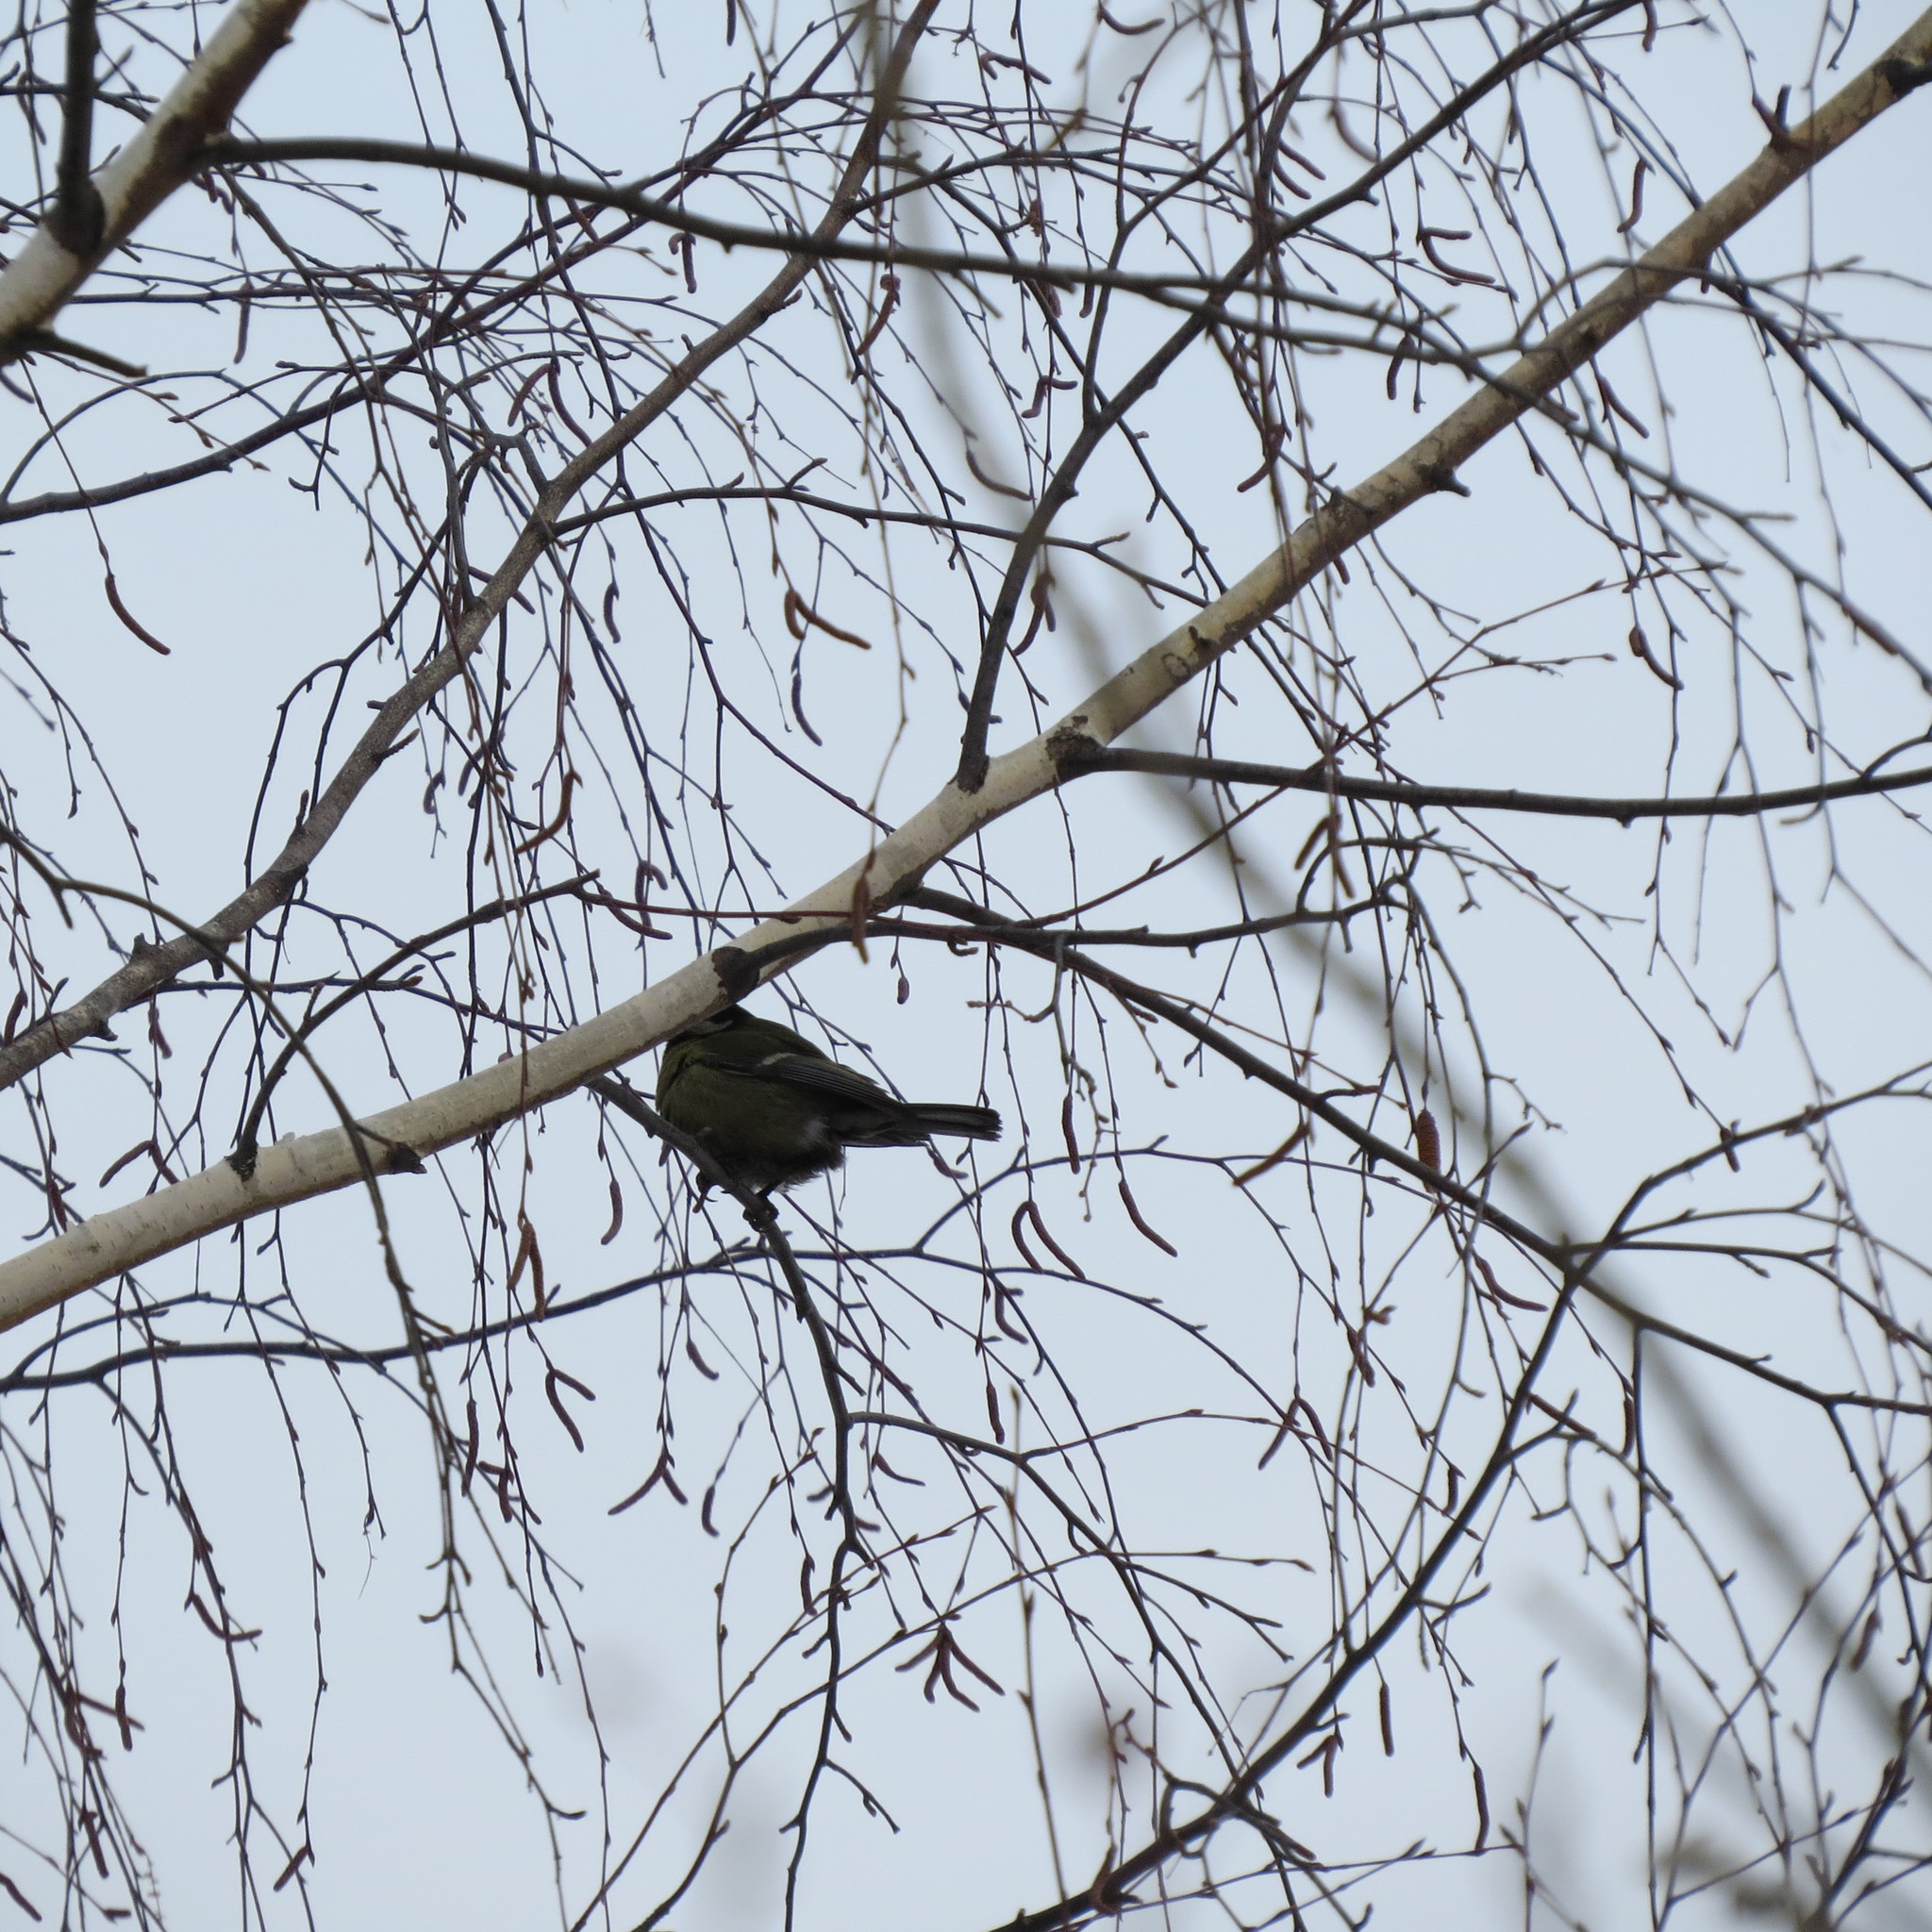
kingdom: Animalia
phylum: Chordata
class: Aves
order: Passeriformes
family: Fringillidae
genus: Pyrrhula
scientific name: Pyrrhula pyrrhula
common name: Eurasian bullfinch
